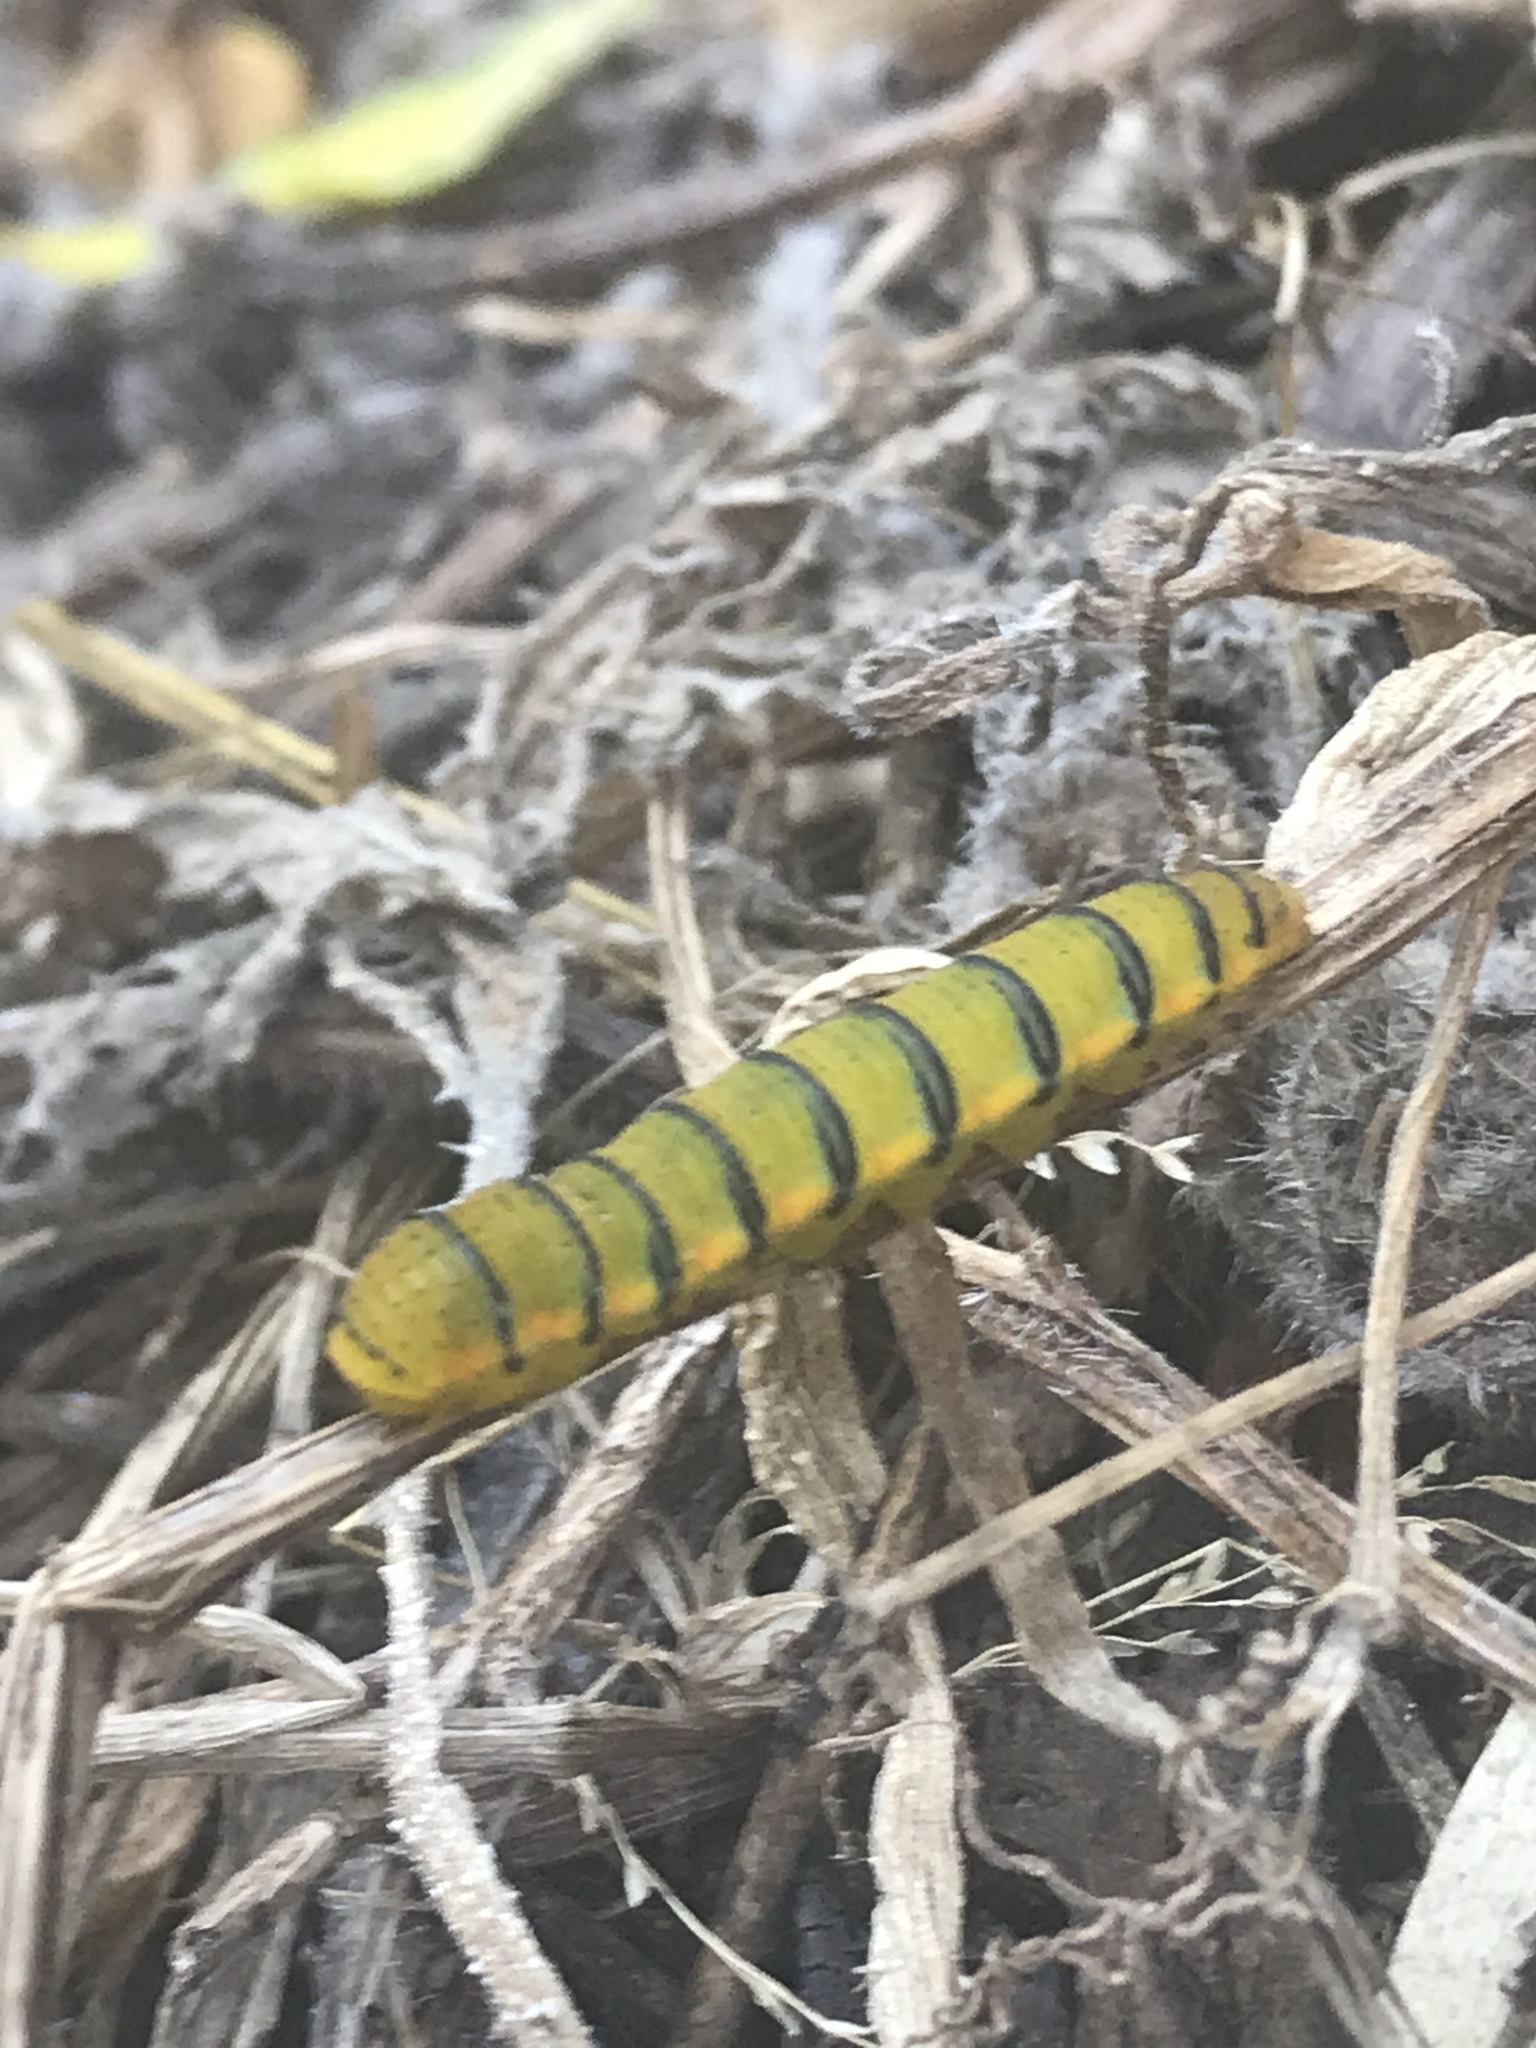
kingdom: Animalia
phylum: Arthropoda
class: Insecta
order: Lepidoptera
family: Pieridae
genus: Phoebis
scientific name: Phoebis sennae
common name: Cloudless sulphur
